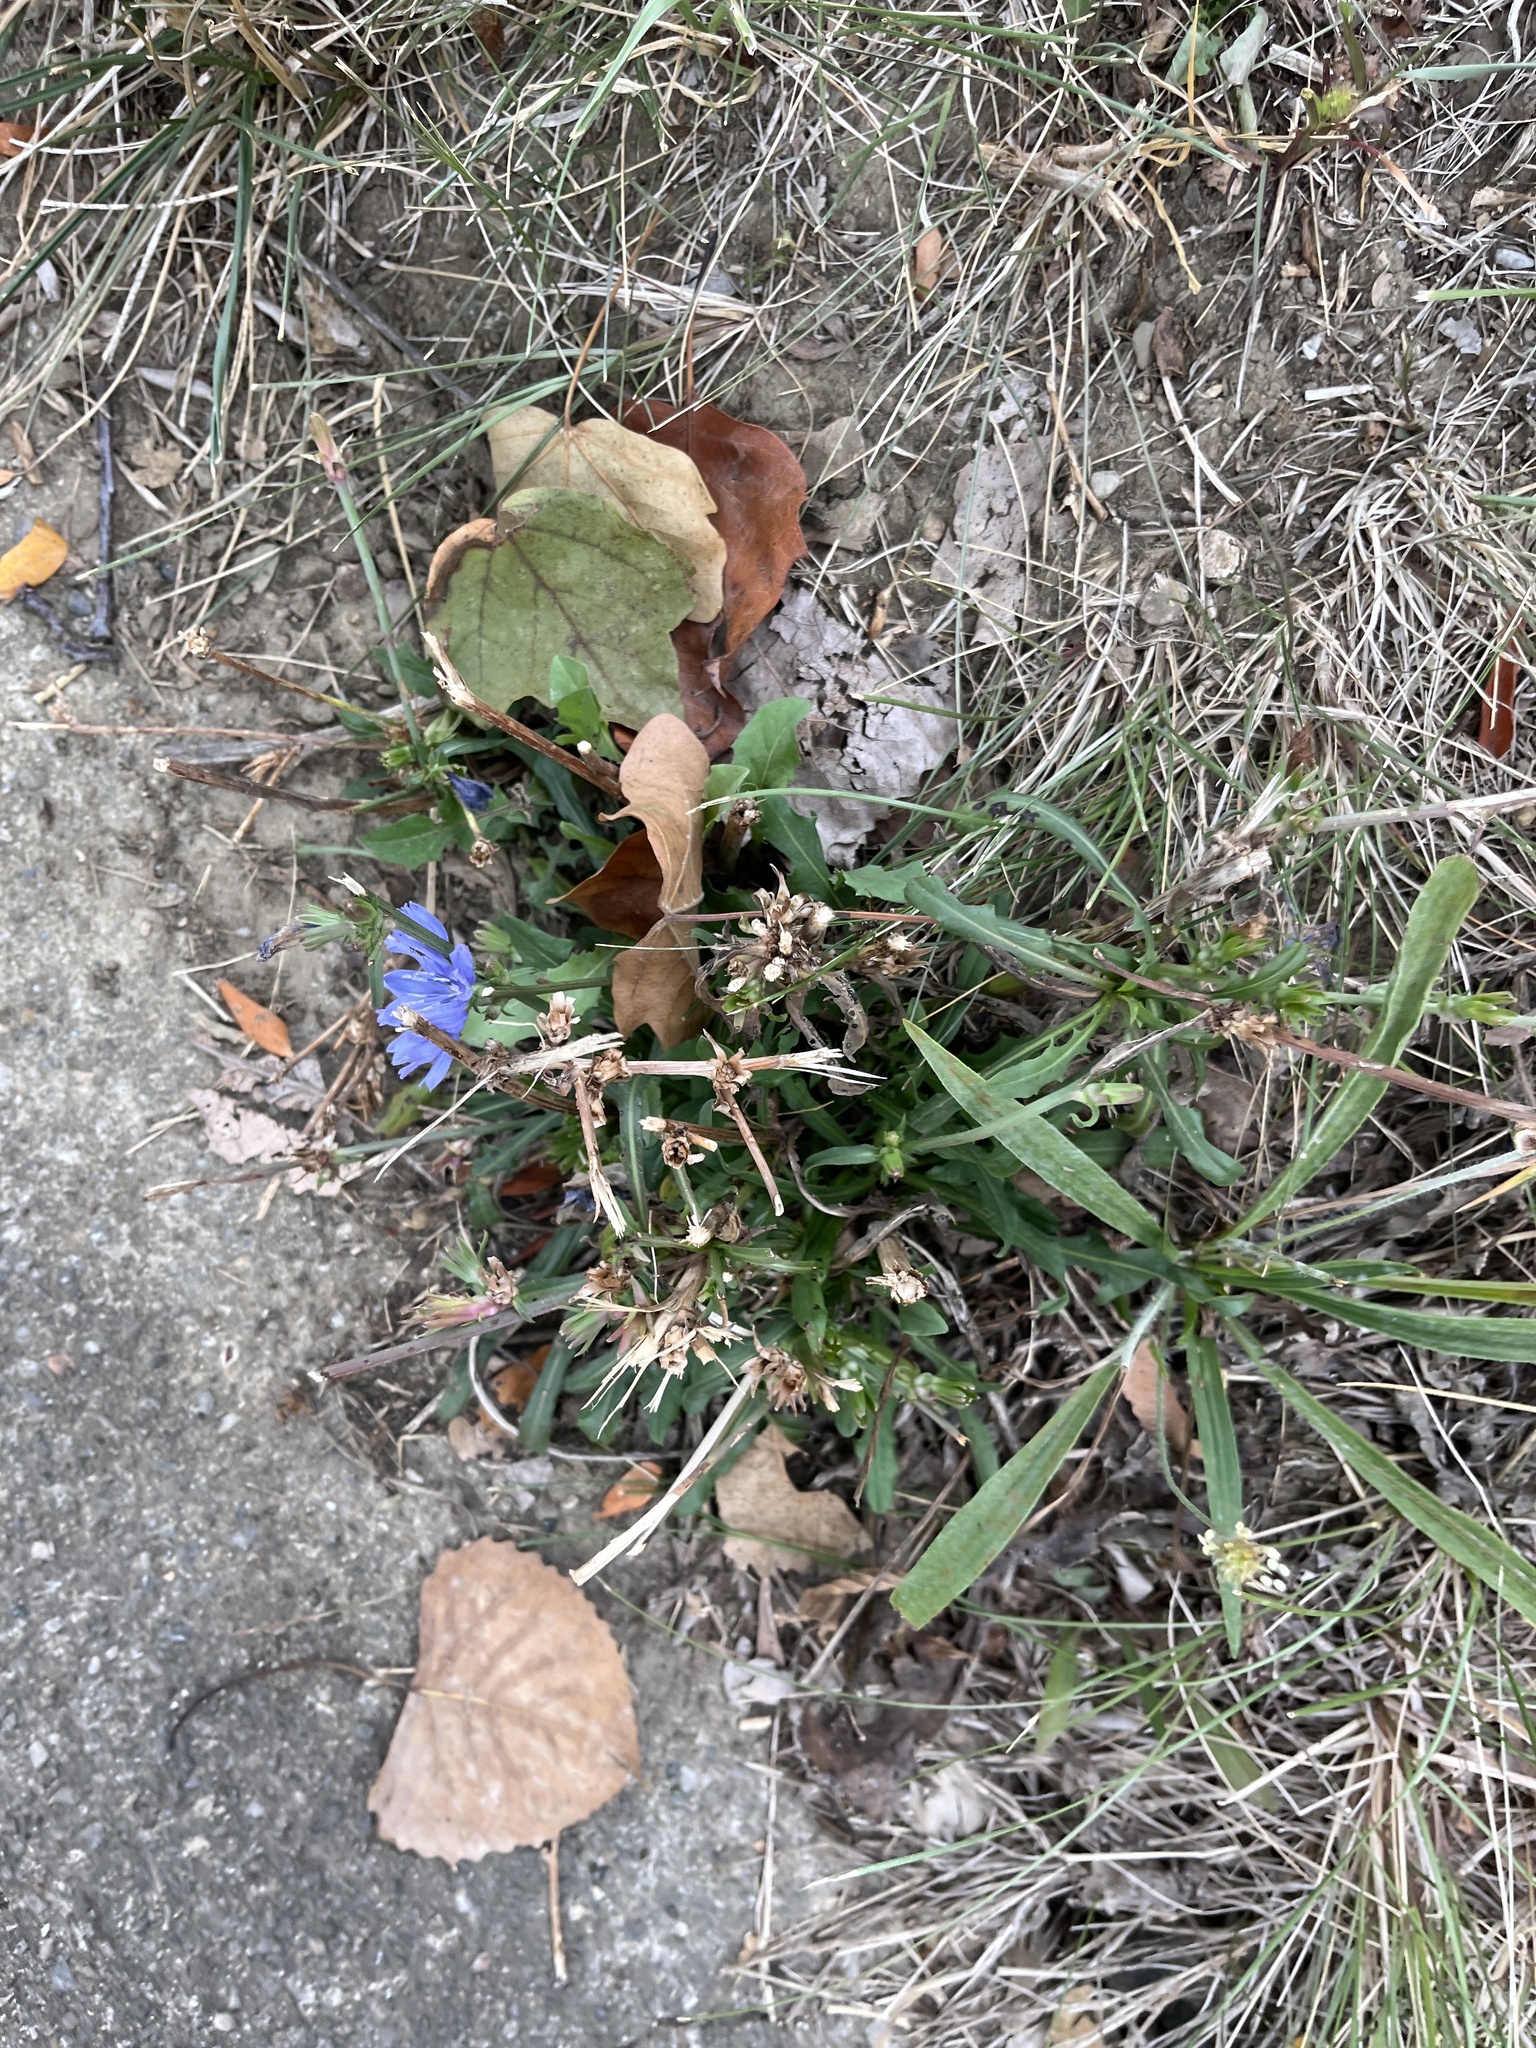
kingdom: Plantae
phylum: Tracheophyta
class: Magnoliopsida
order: Asterales
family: Asteraceae
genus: Cichorium
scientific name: Cichorium intybus
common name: Chicory
